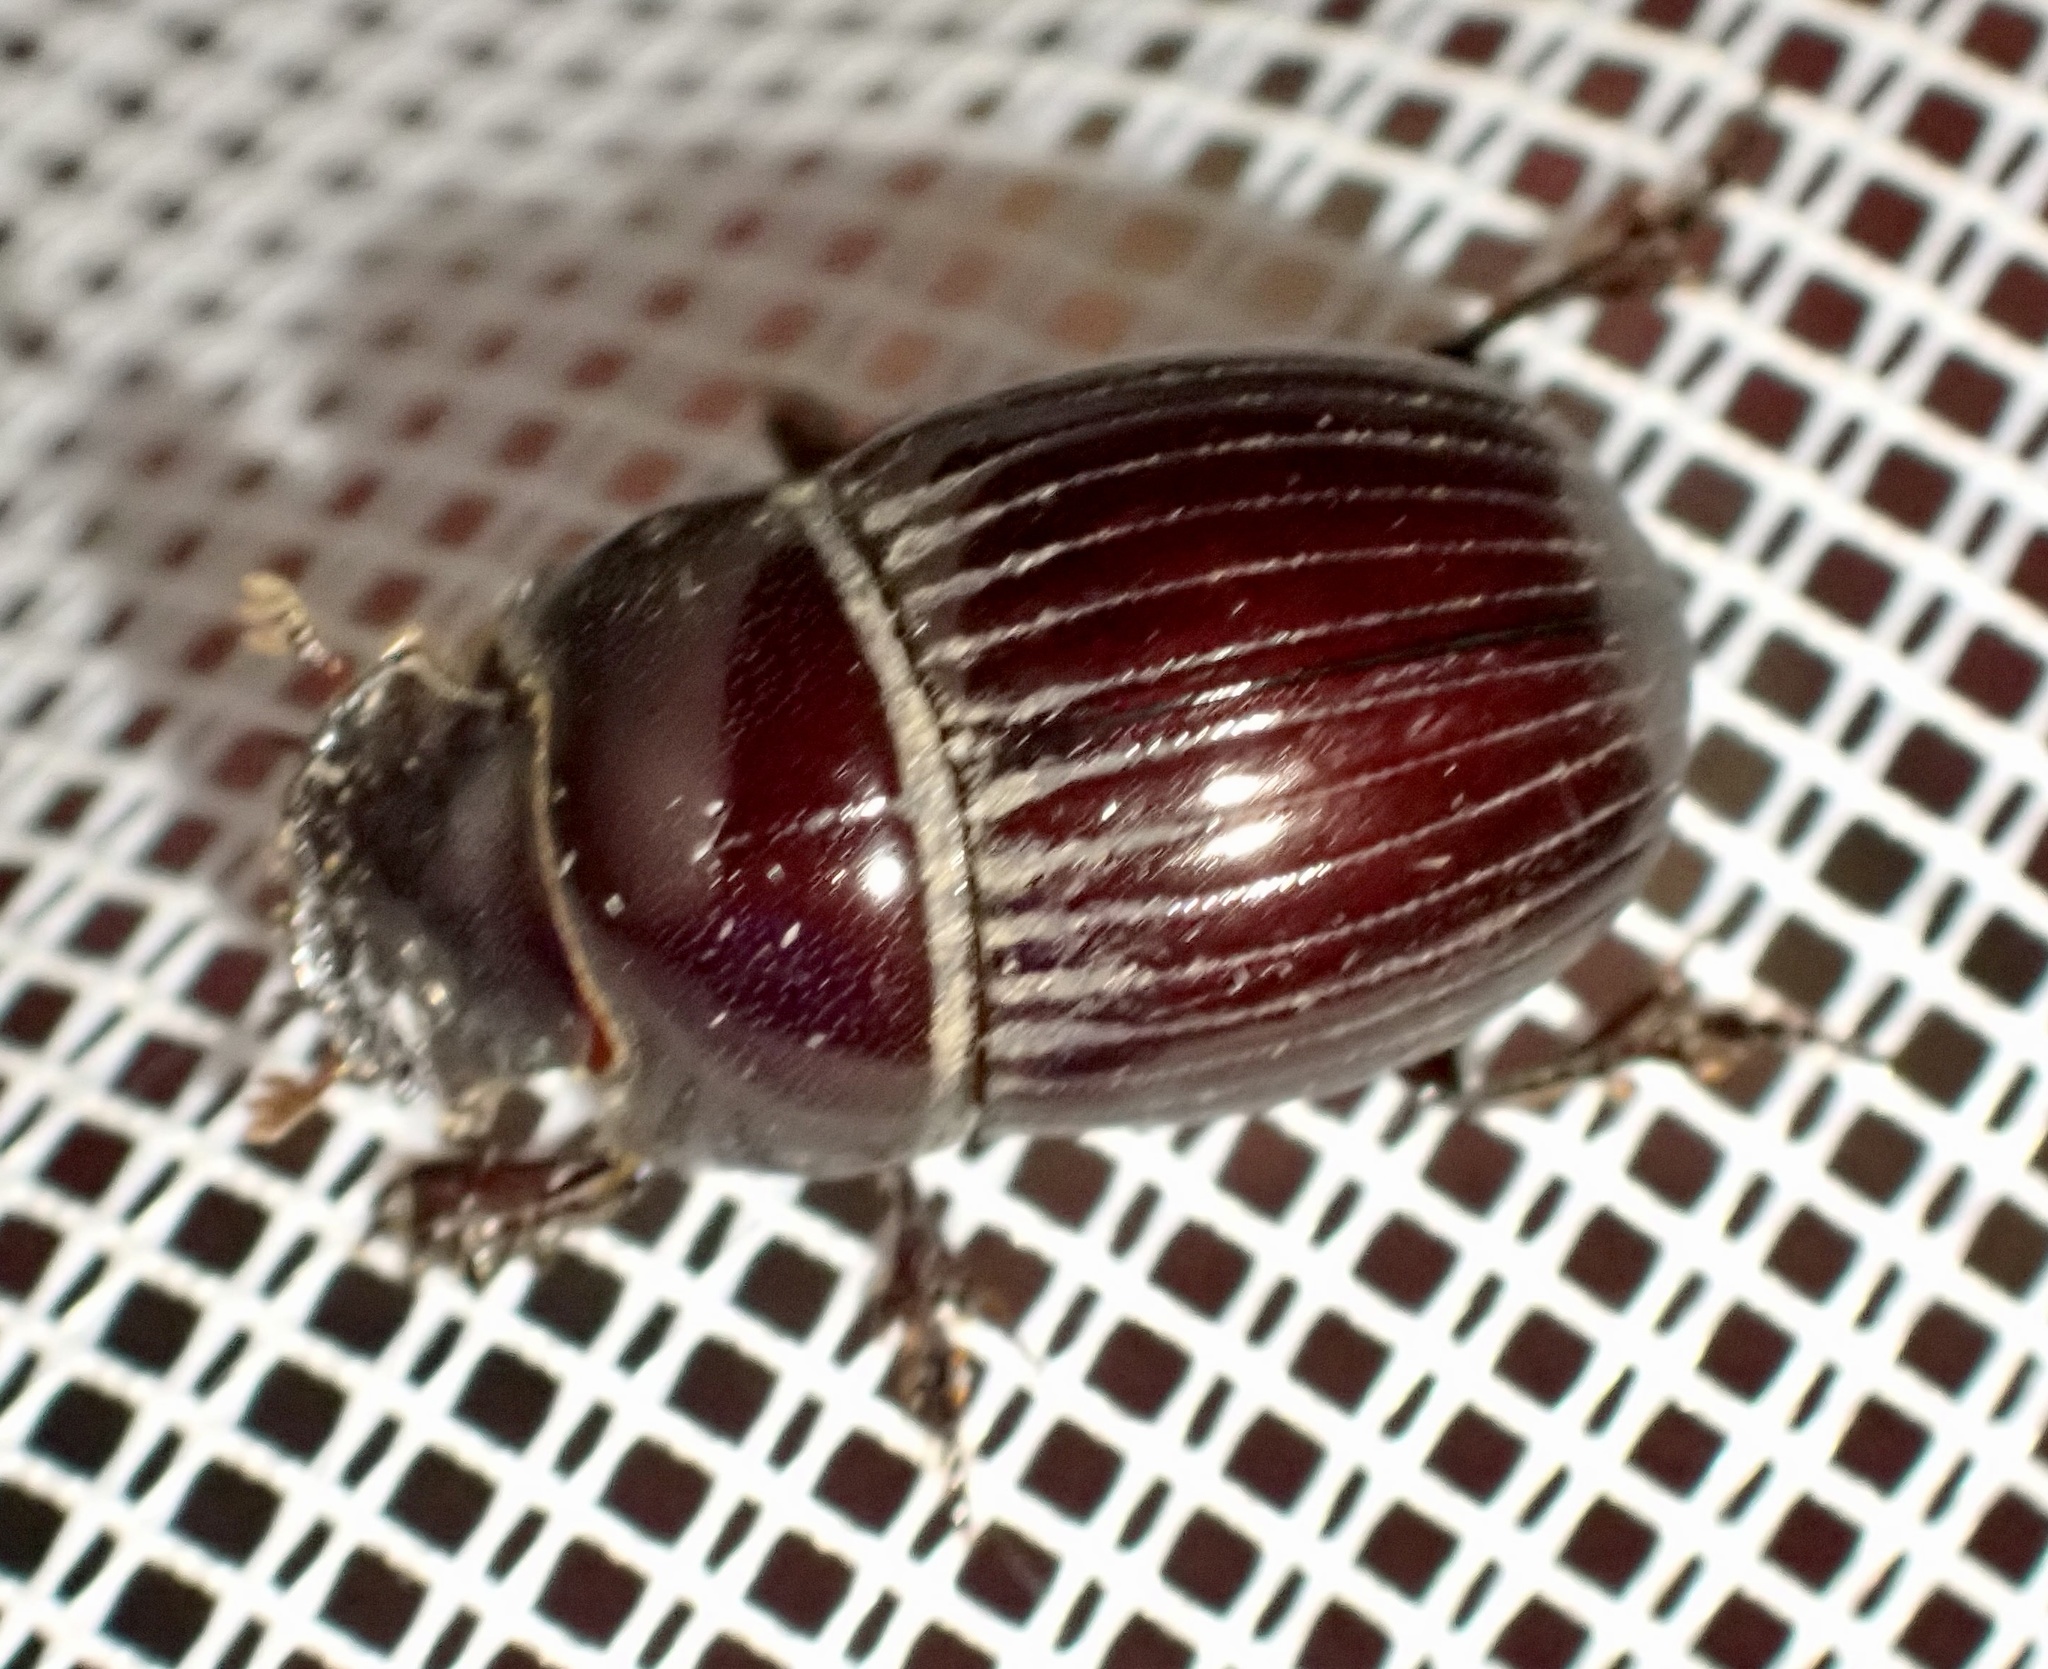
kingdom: Animalia
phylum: Arthropoda
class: Insecta
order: Coleoptera
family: Scarabaeidae
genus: Copris
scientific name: Copris obesus
